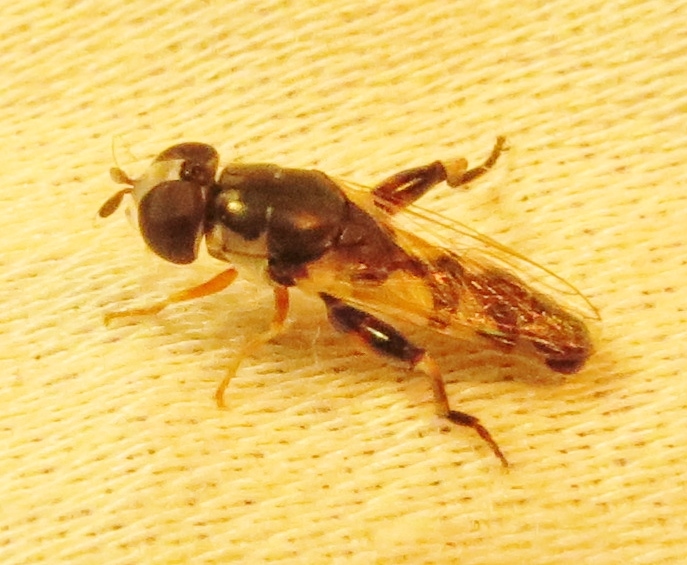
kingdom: Animalia
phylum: Arthropoda
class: Insecta
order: Diptera
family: Syrphidae
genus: Syritta
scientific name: Syritta flaviventris
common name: Syrphid fly
